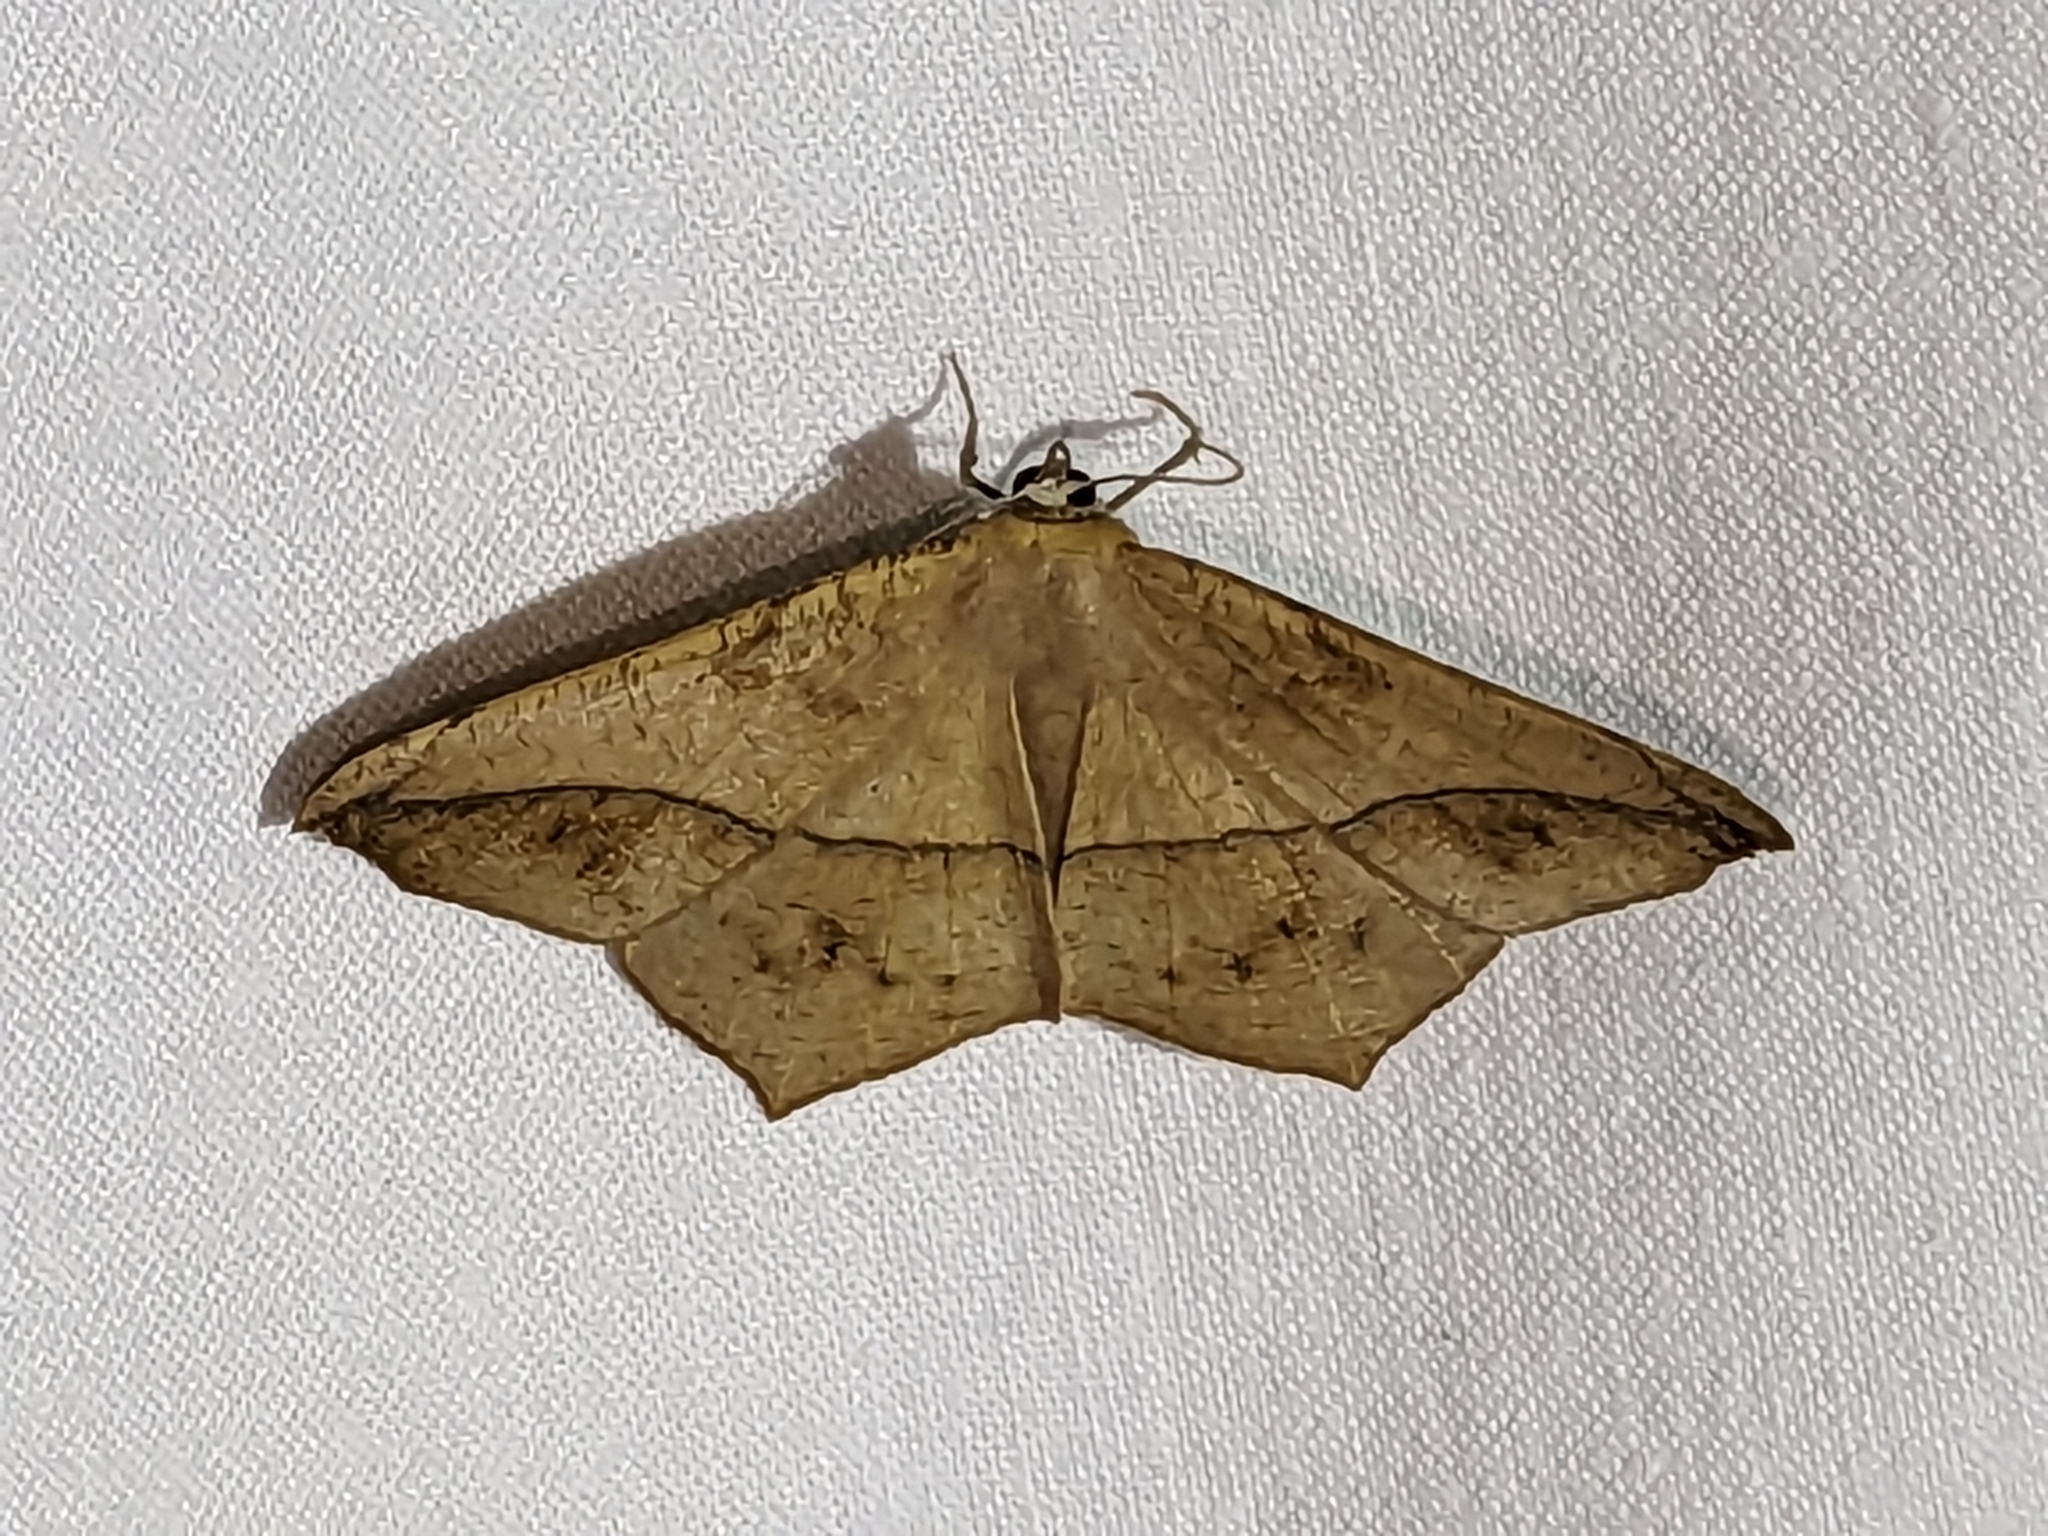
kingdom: Animalia
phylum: Arthropoda
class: Insecta
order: Lepidoptera
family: Geometridae
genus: Prochoerodes
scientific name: Prochoerodes lineola
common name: Large maple spanworm
